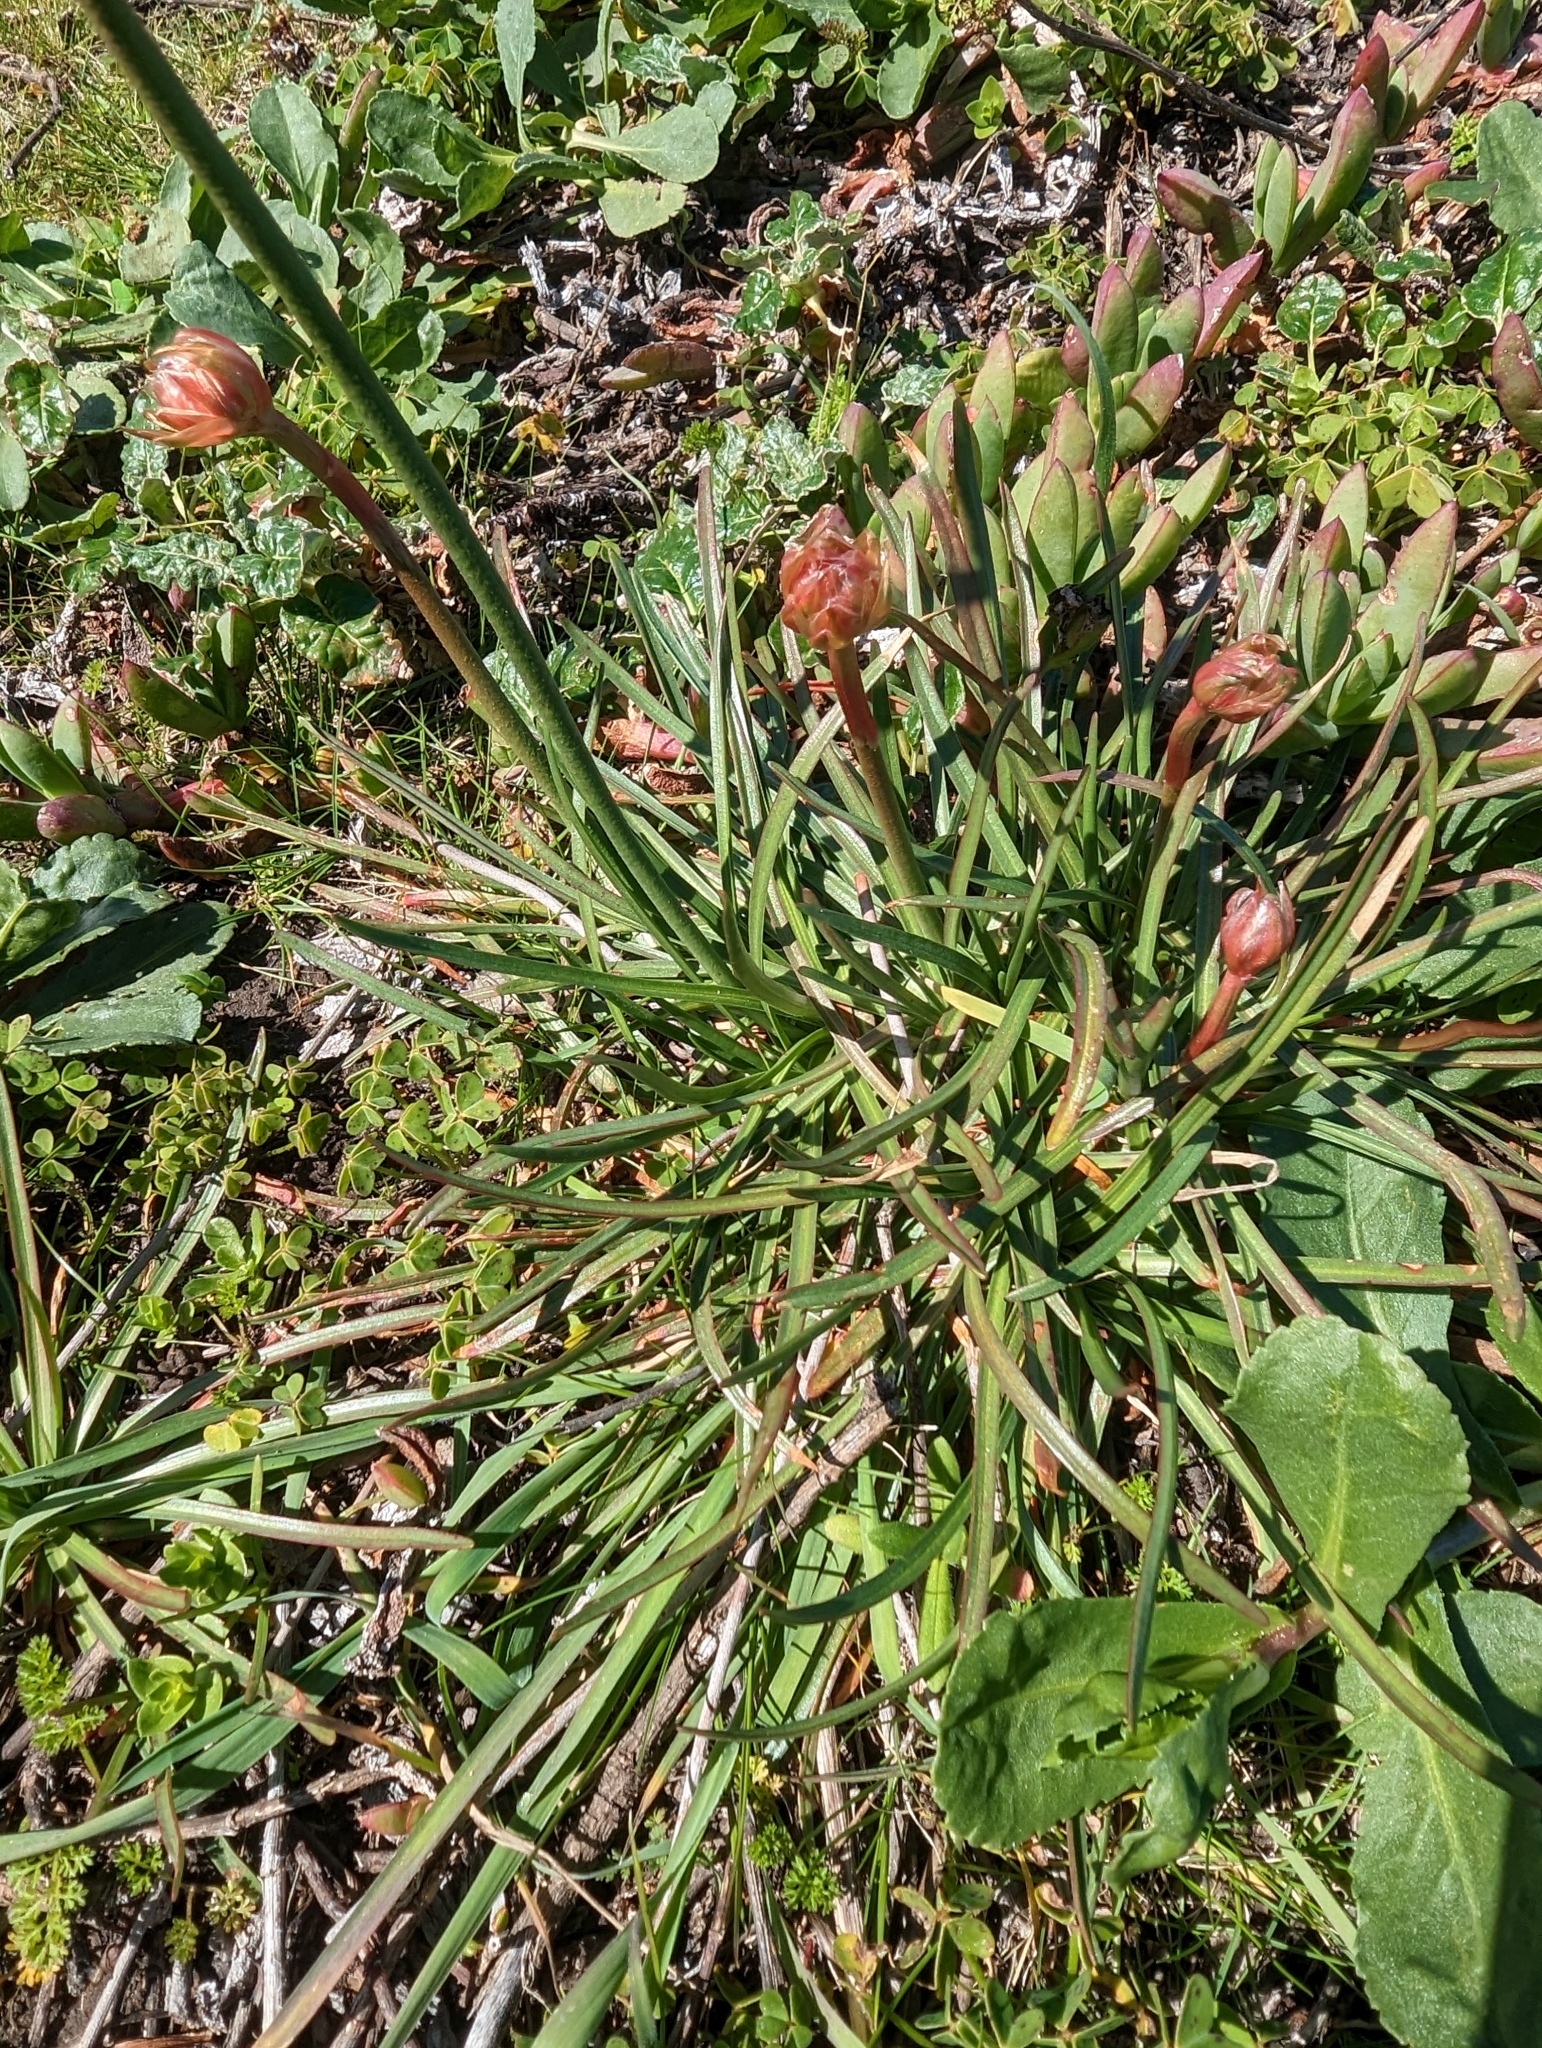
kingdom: Plantae
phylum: Tracheophyta
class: Magnoliopsida
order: Caryophyllales
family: Plumbaginaceae
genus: Armeria
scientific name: Armeria maritima
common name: Thrift
